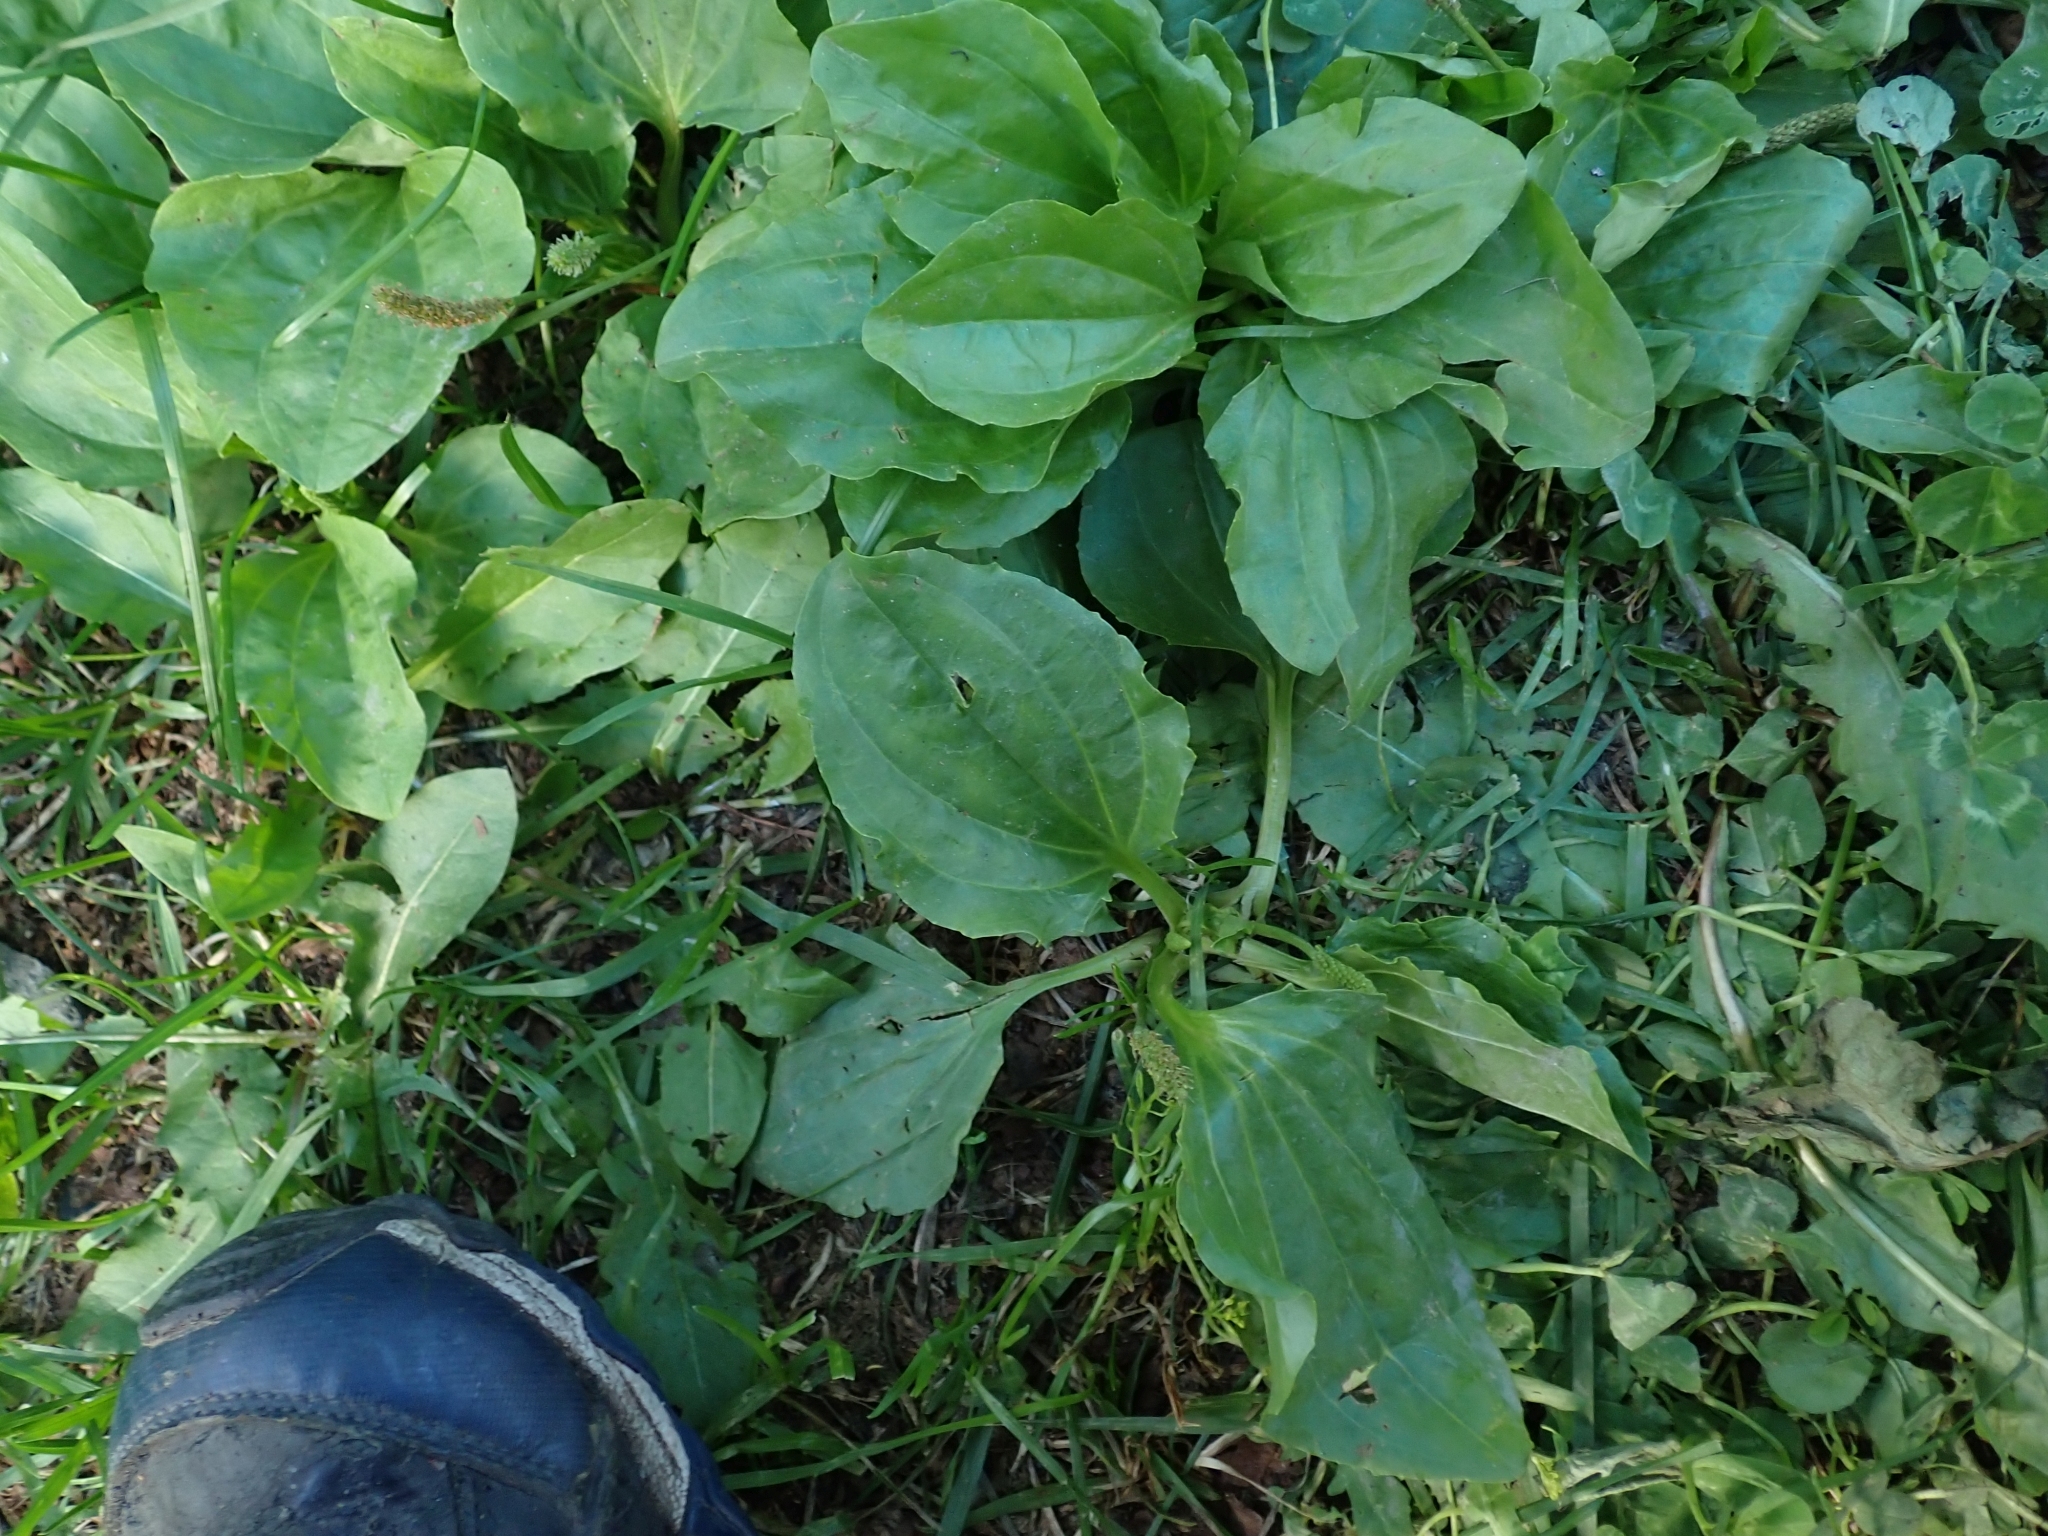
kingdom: Plantae
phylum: Tracheophyta
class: Magnoliopsida
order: Lamiales
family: Plantaginaceae
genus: Plantago
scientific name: Plantago major
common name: Common plantain
